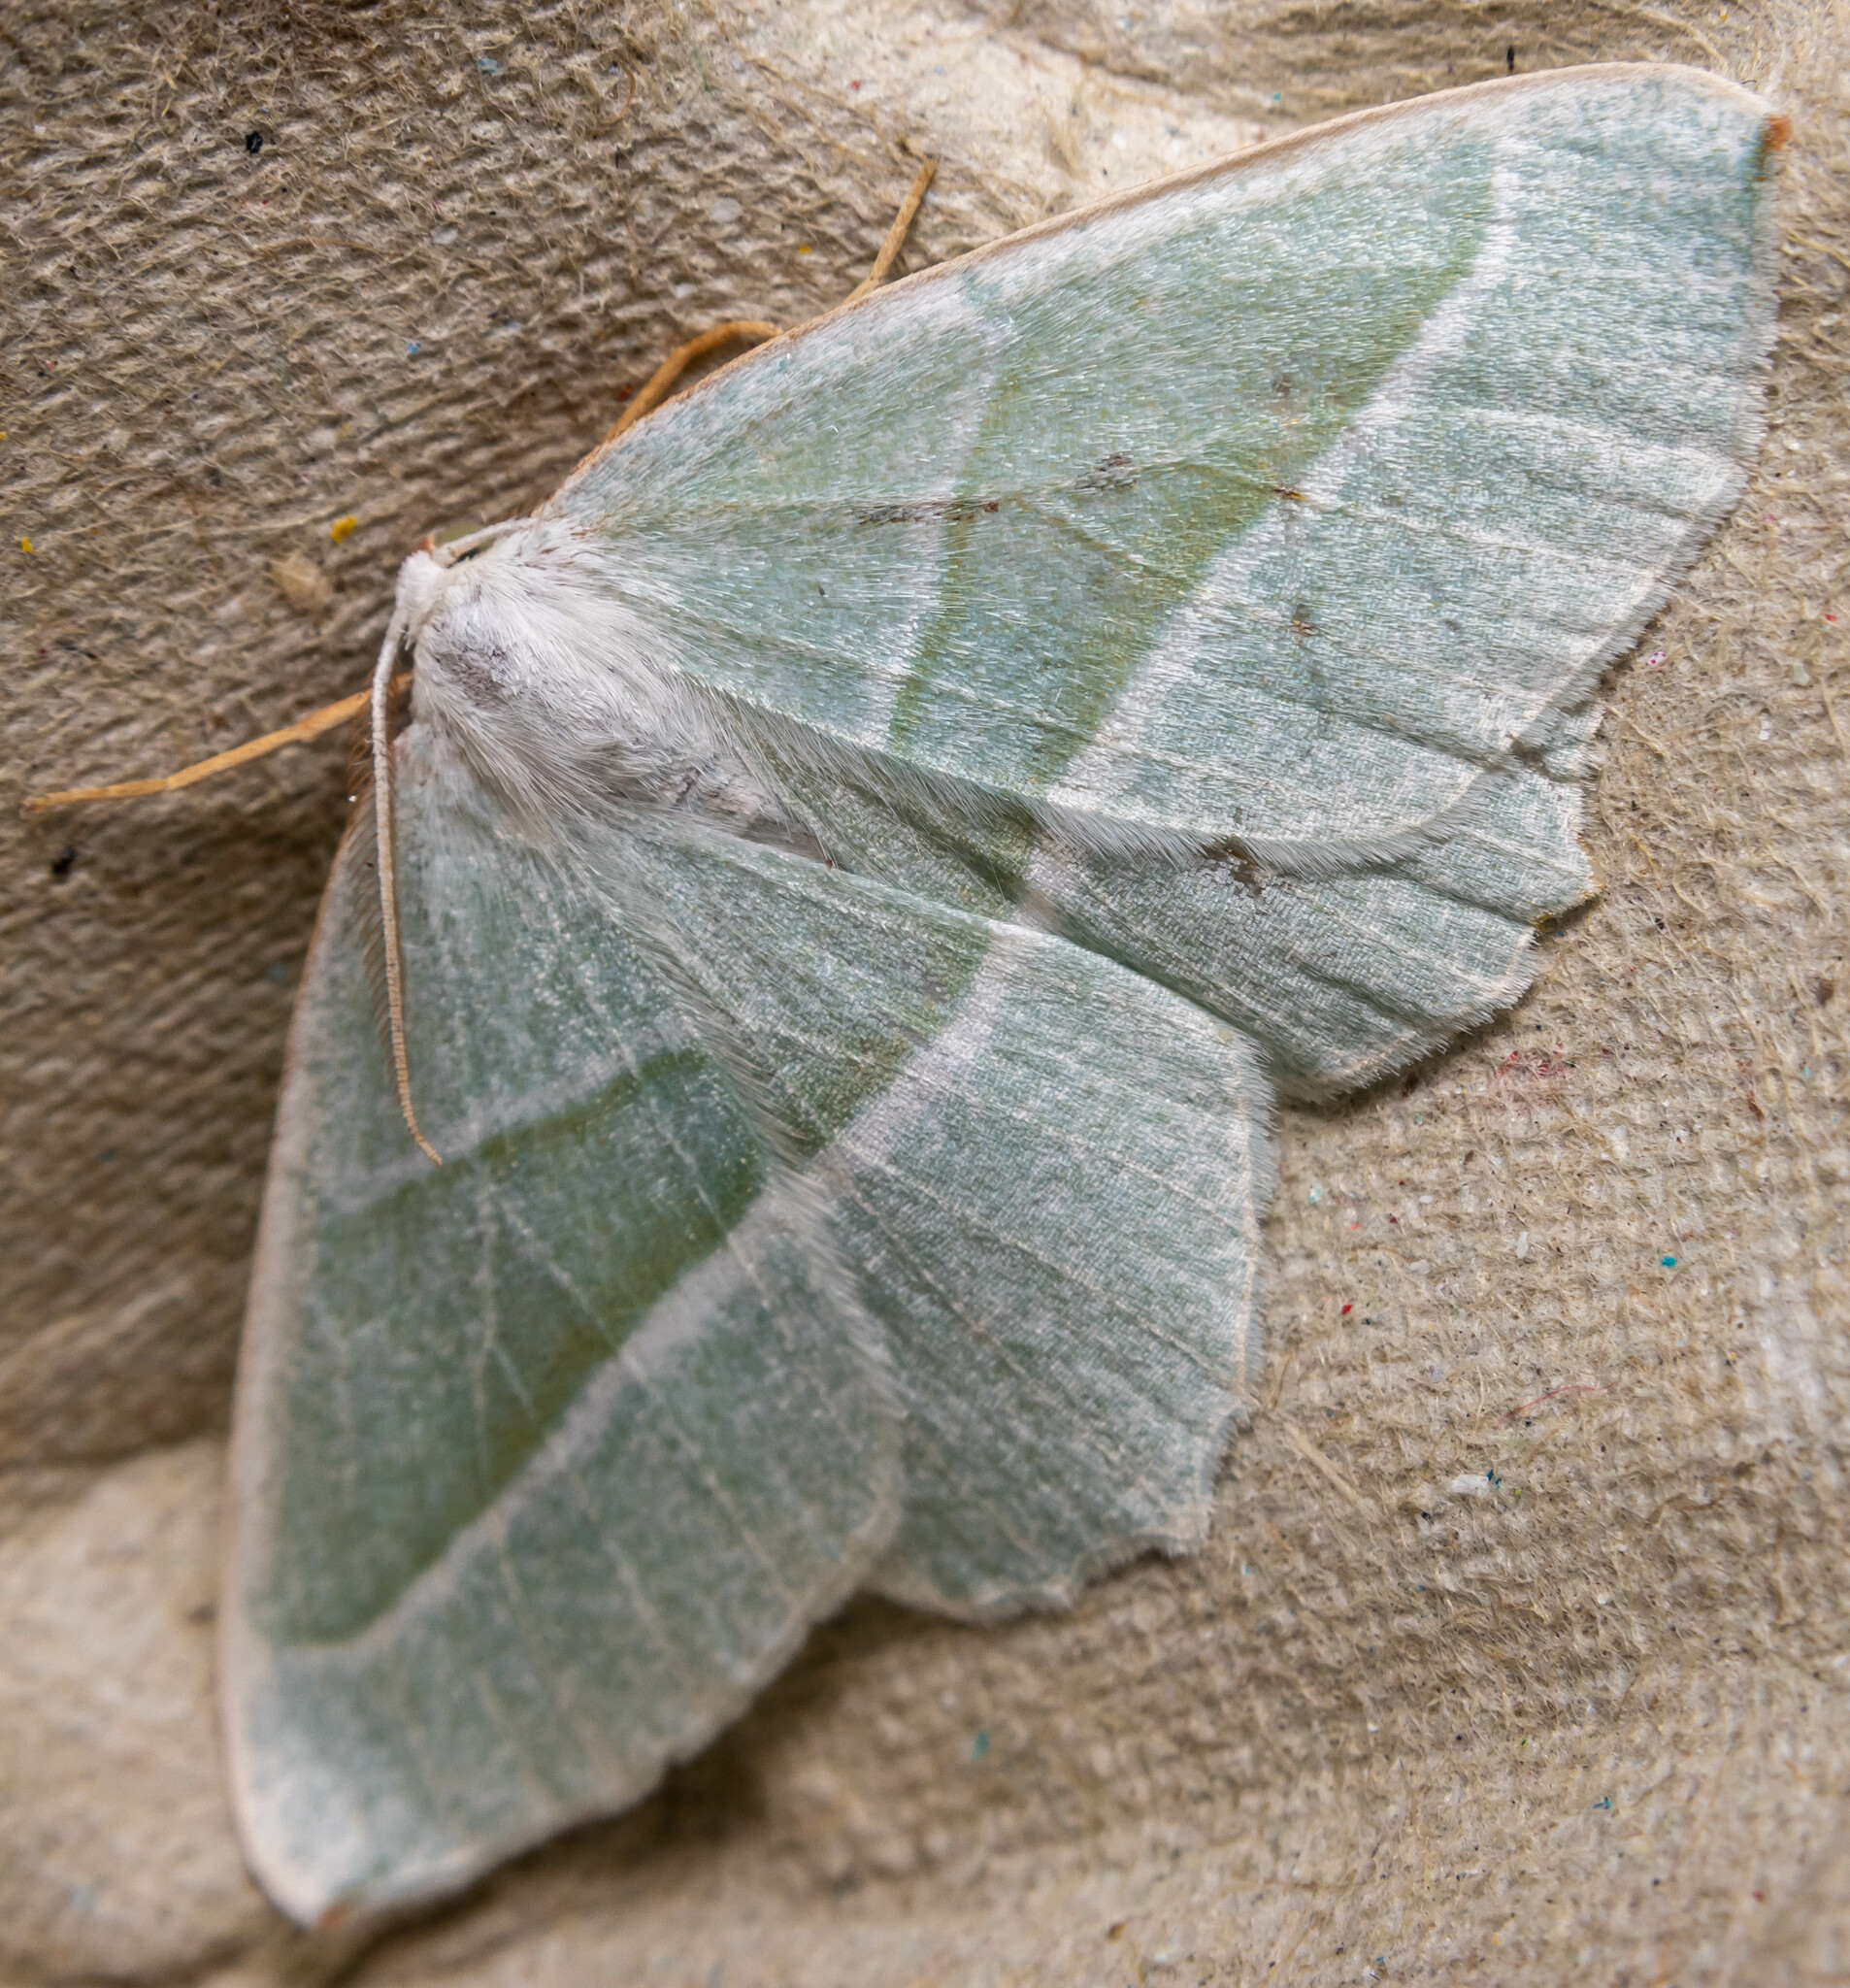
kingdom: Animalia
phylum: Arthropoda
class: Insecta
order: Lepidoptera
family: Geometridae
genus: Campaea
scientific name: Campaea margaritaria
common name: Light emerald
